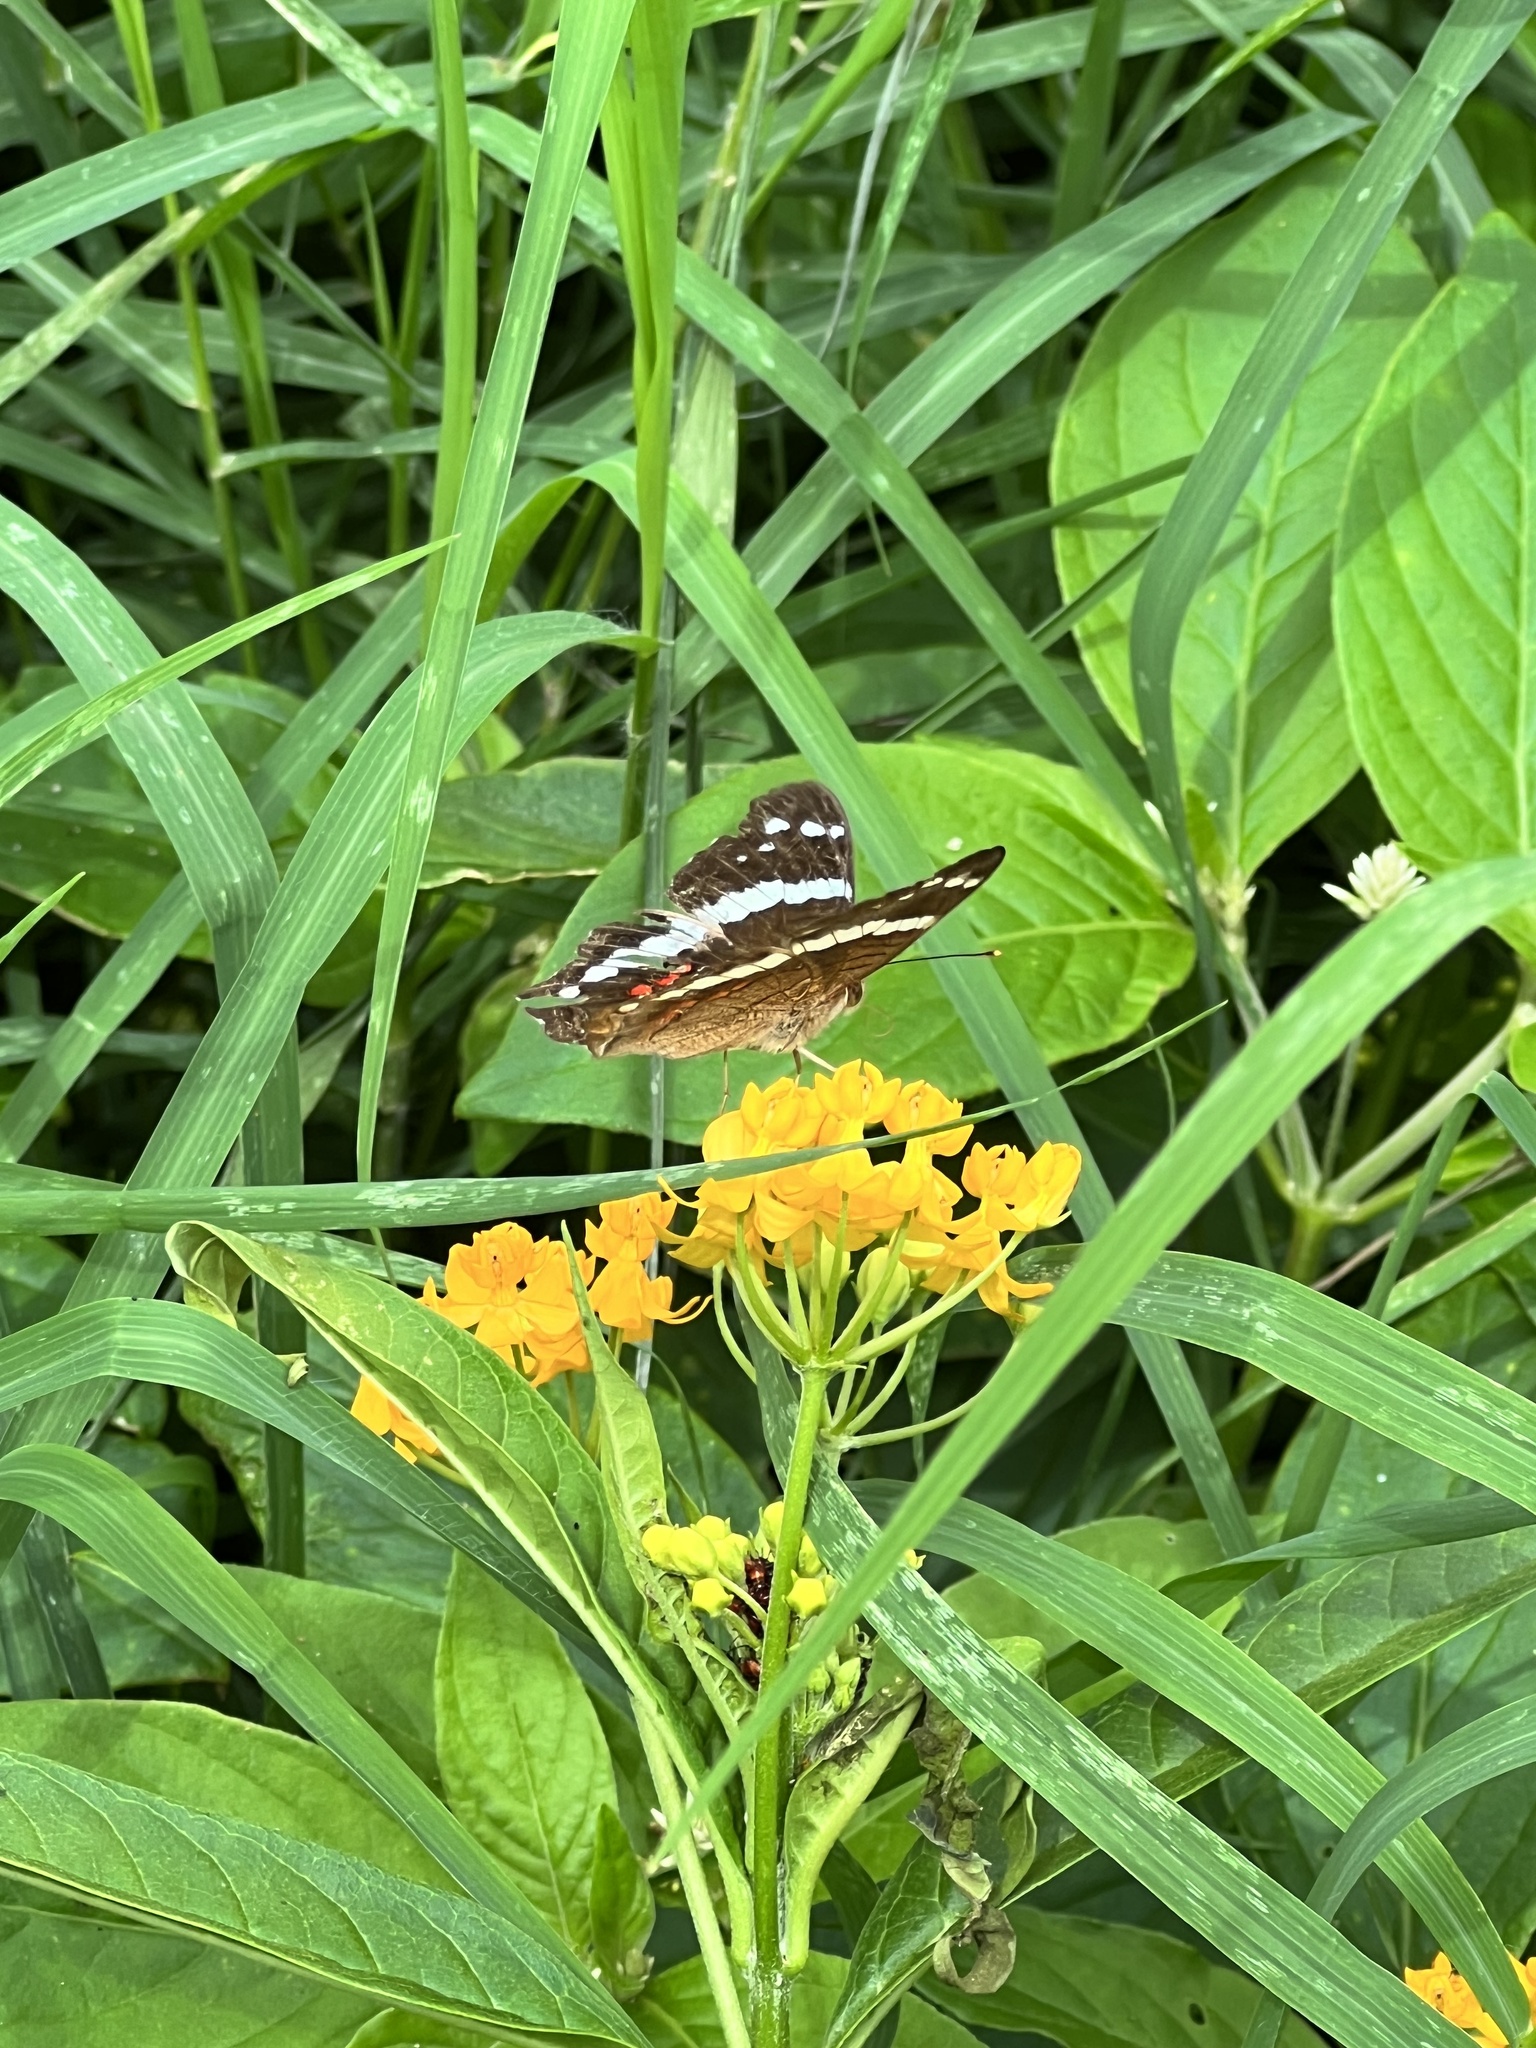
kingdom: Animalia
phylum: Arthropoda
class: Insecta
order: Lepidoptera
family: Nymphalidae
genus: Anartia
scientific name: Anartia fatima
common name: Banded peacock
